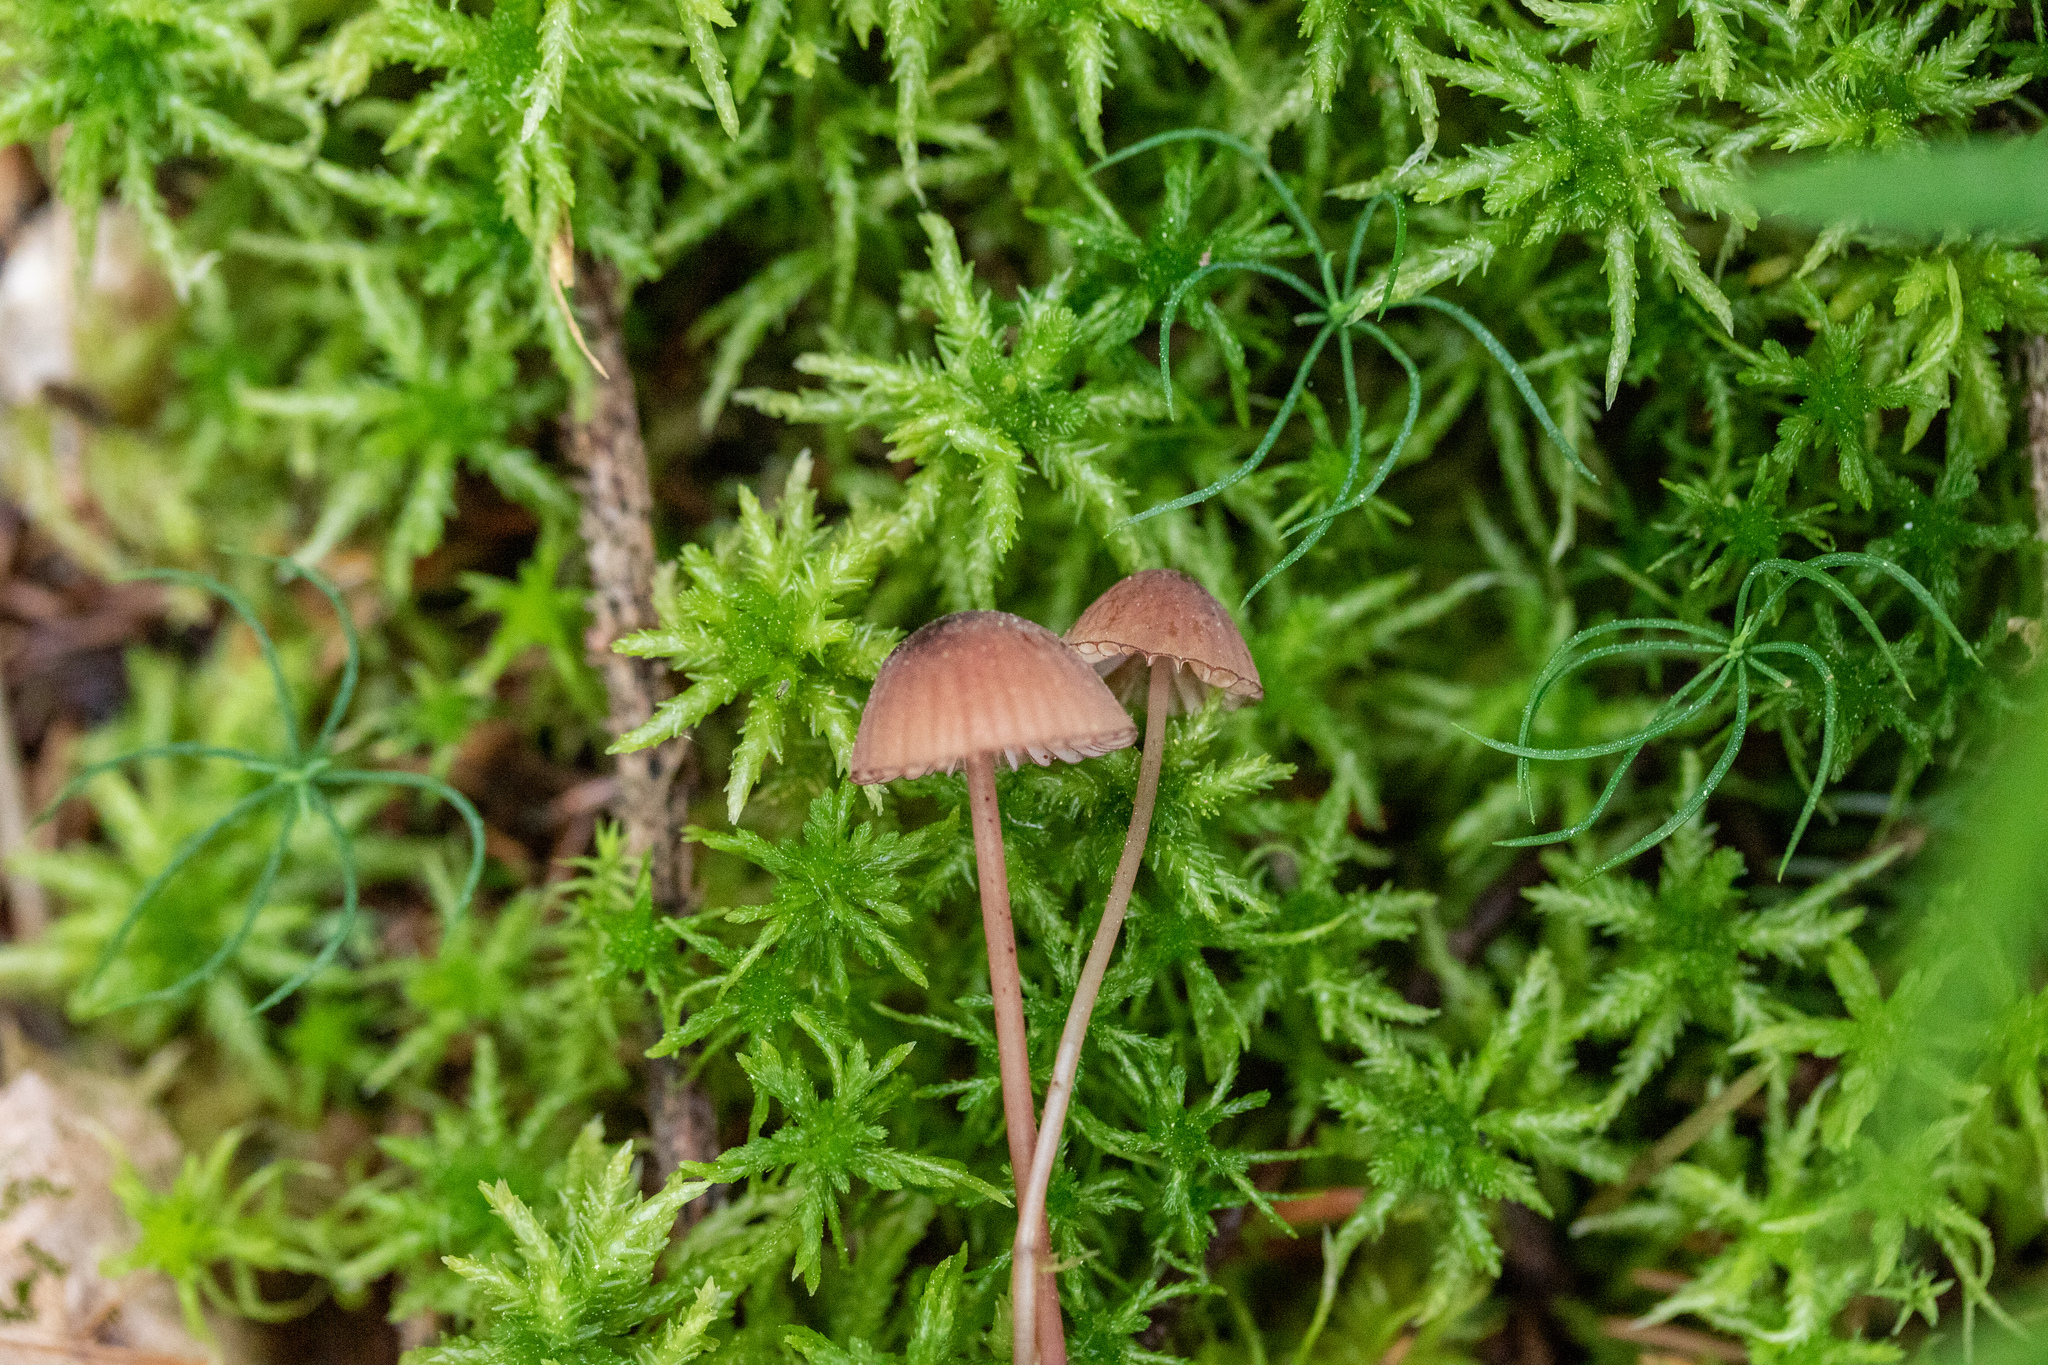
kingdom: Fungi
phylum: Basidiomycota
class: Agaricomycetes
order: Agaricales
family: Mycenaceae
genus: Mycena
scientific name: Mycena sanguinolenta
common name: Bleeding bonnet
